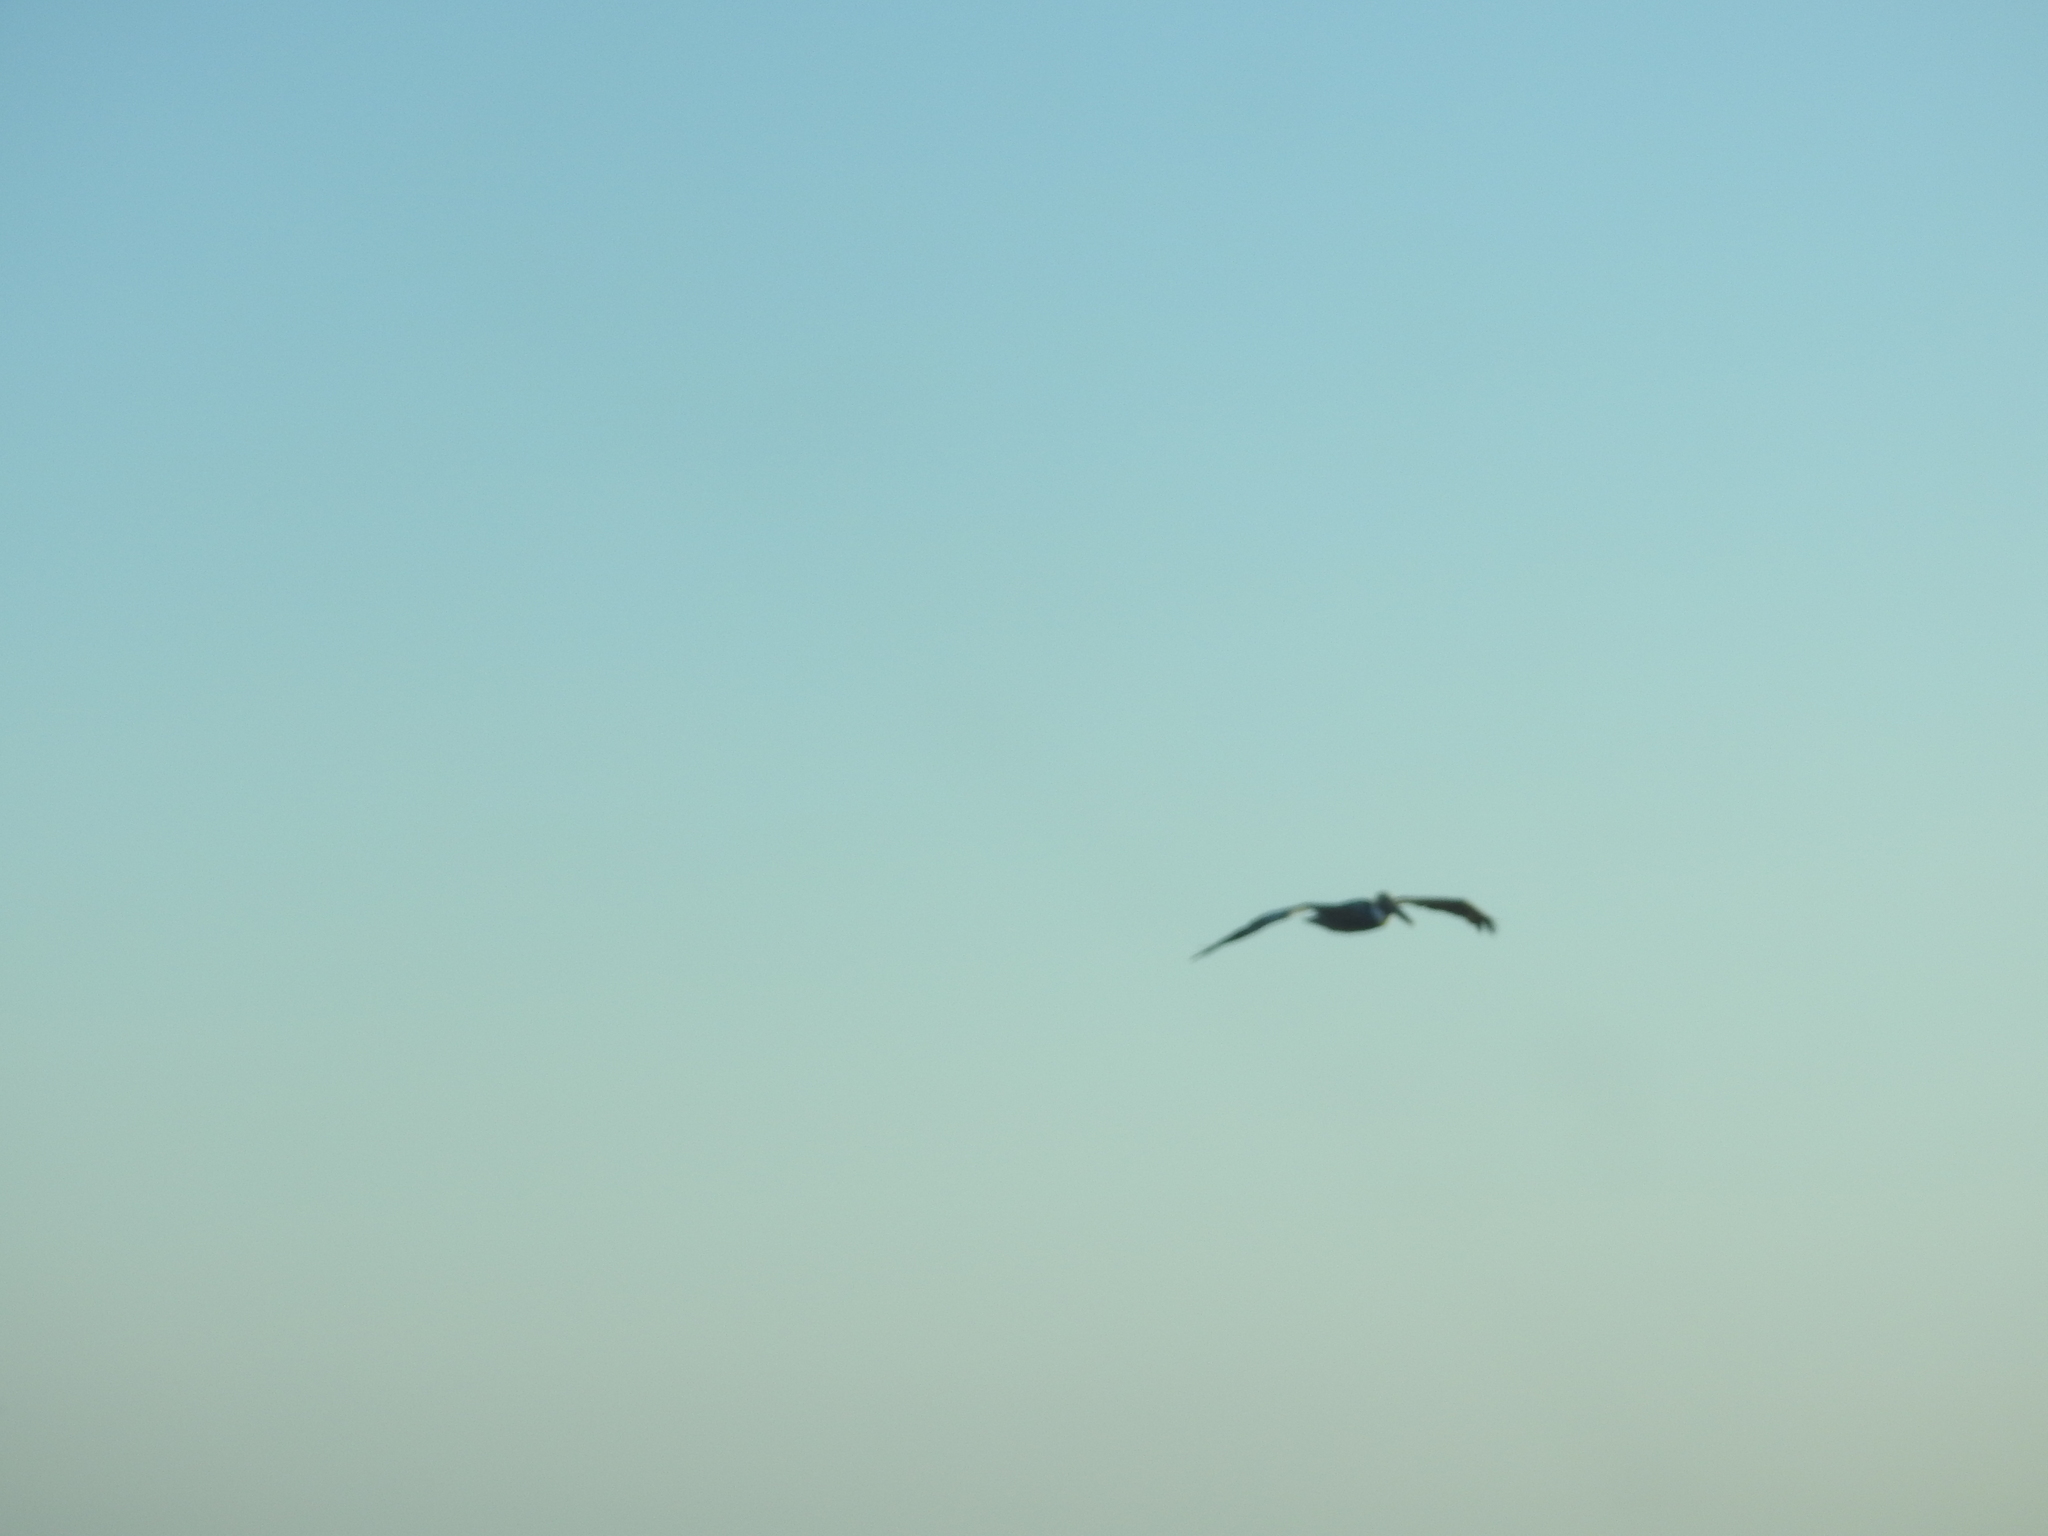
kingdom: Animalia
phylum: Chordata
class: Aves
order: Pelecaniformes
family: Pelecanidae
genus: Pelecanus
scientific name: Pelecanus occidentalis
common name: Brown pelican
